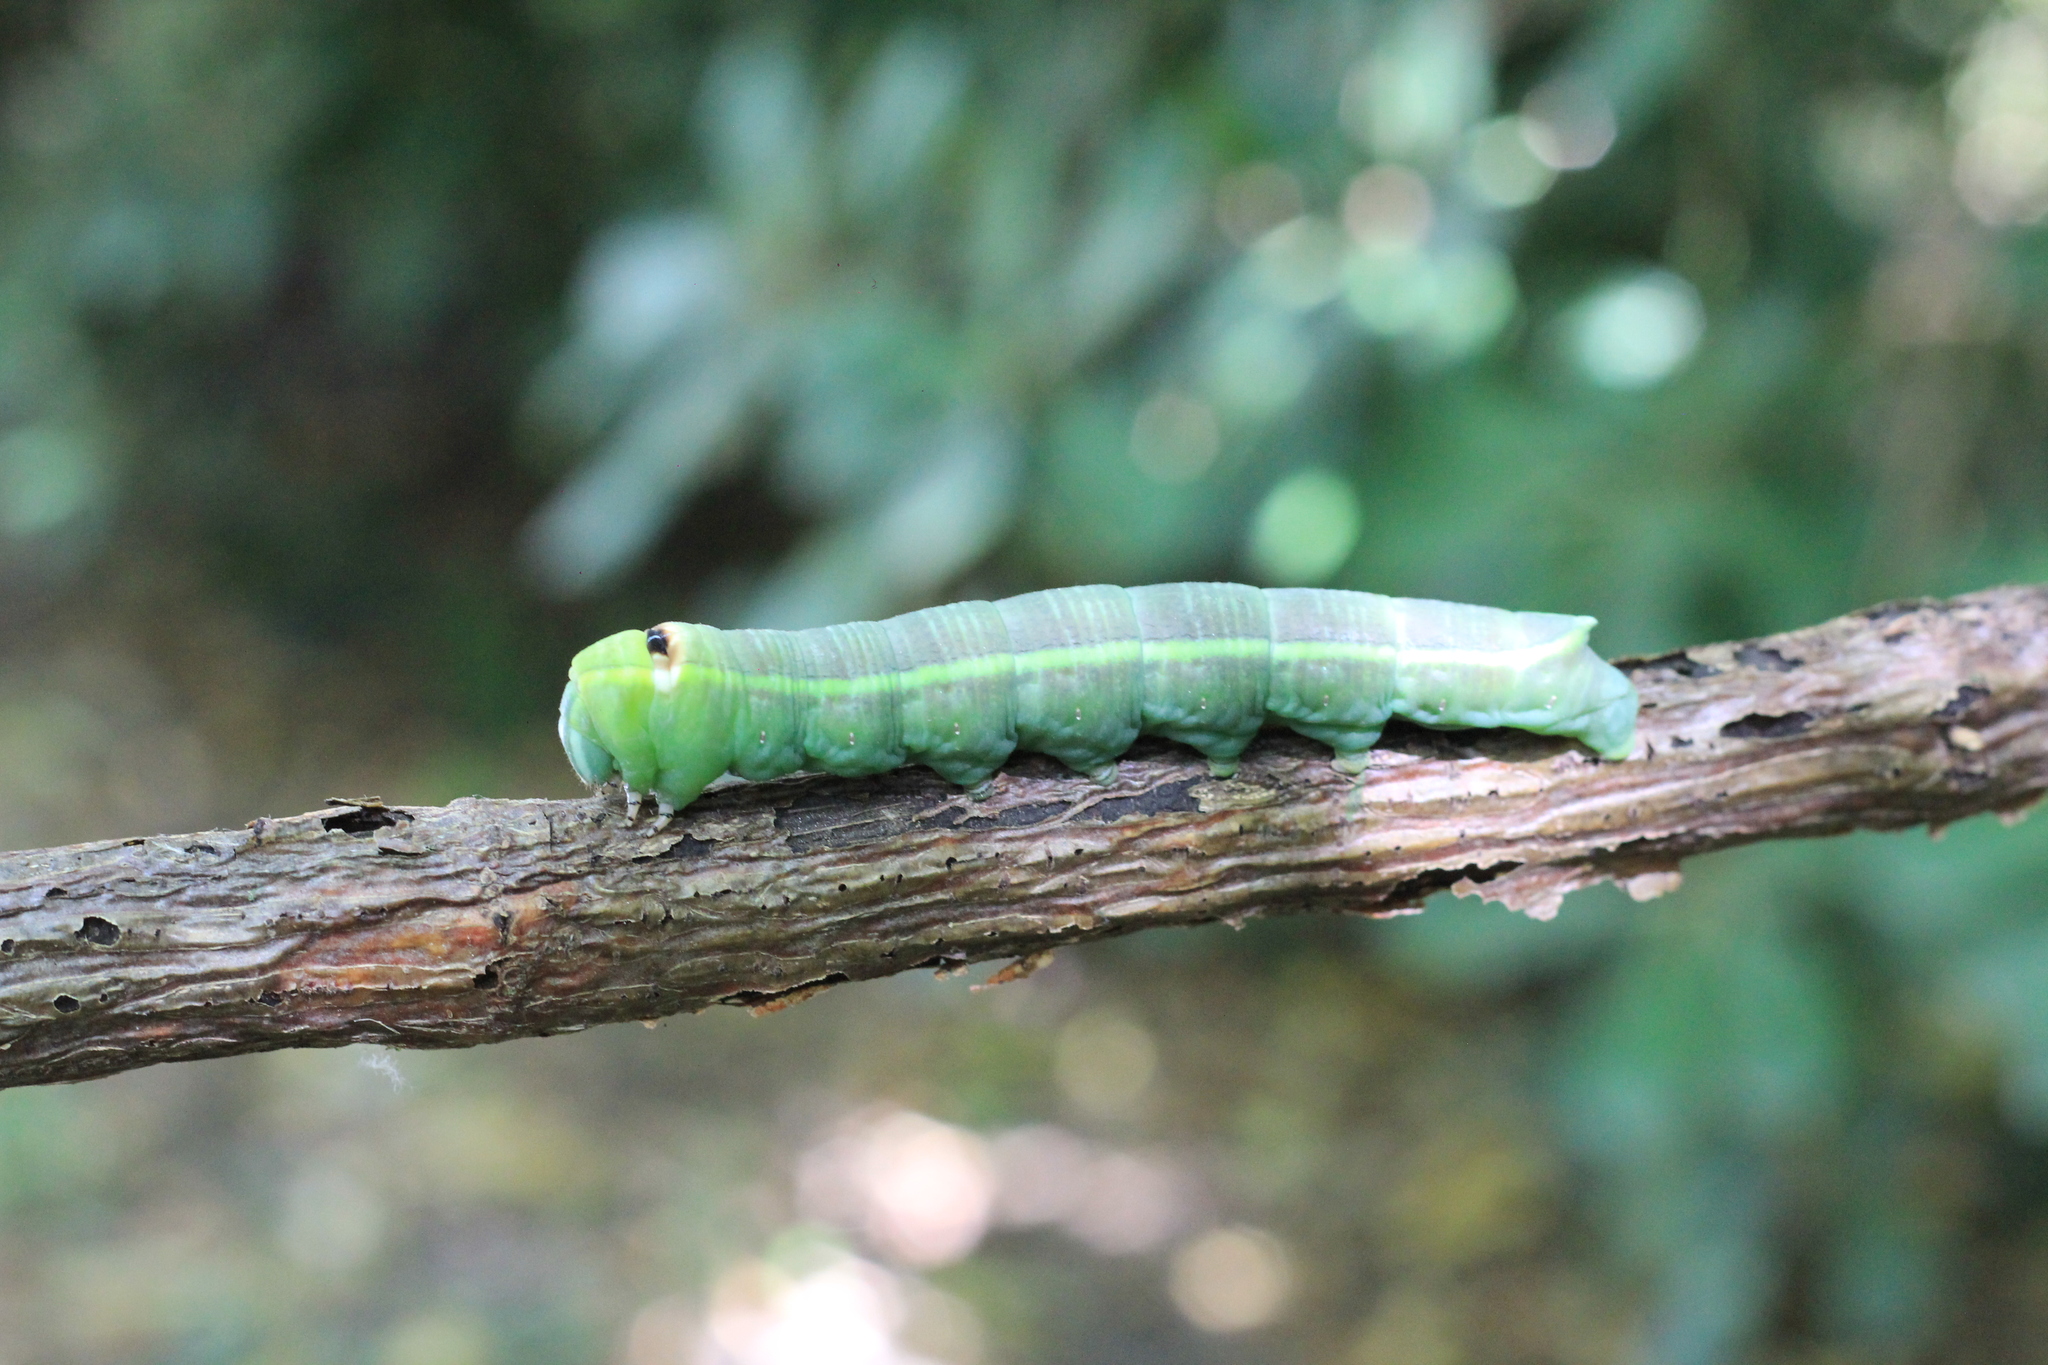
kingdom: Animalia
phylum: Arthropoda
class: Insecta
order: Lepidoptera
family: Sphingidae
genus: Erinnyis
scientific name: Erinnyis ello
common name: Ello sphinx
